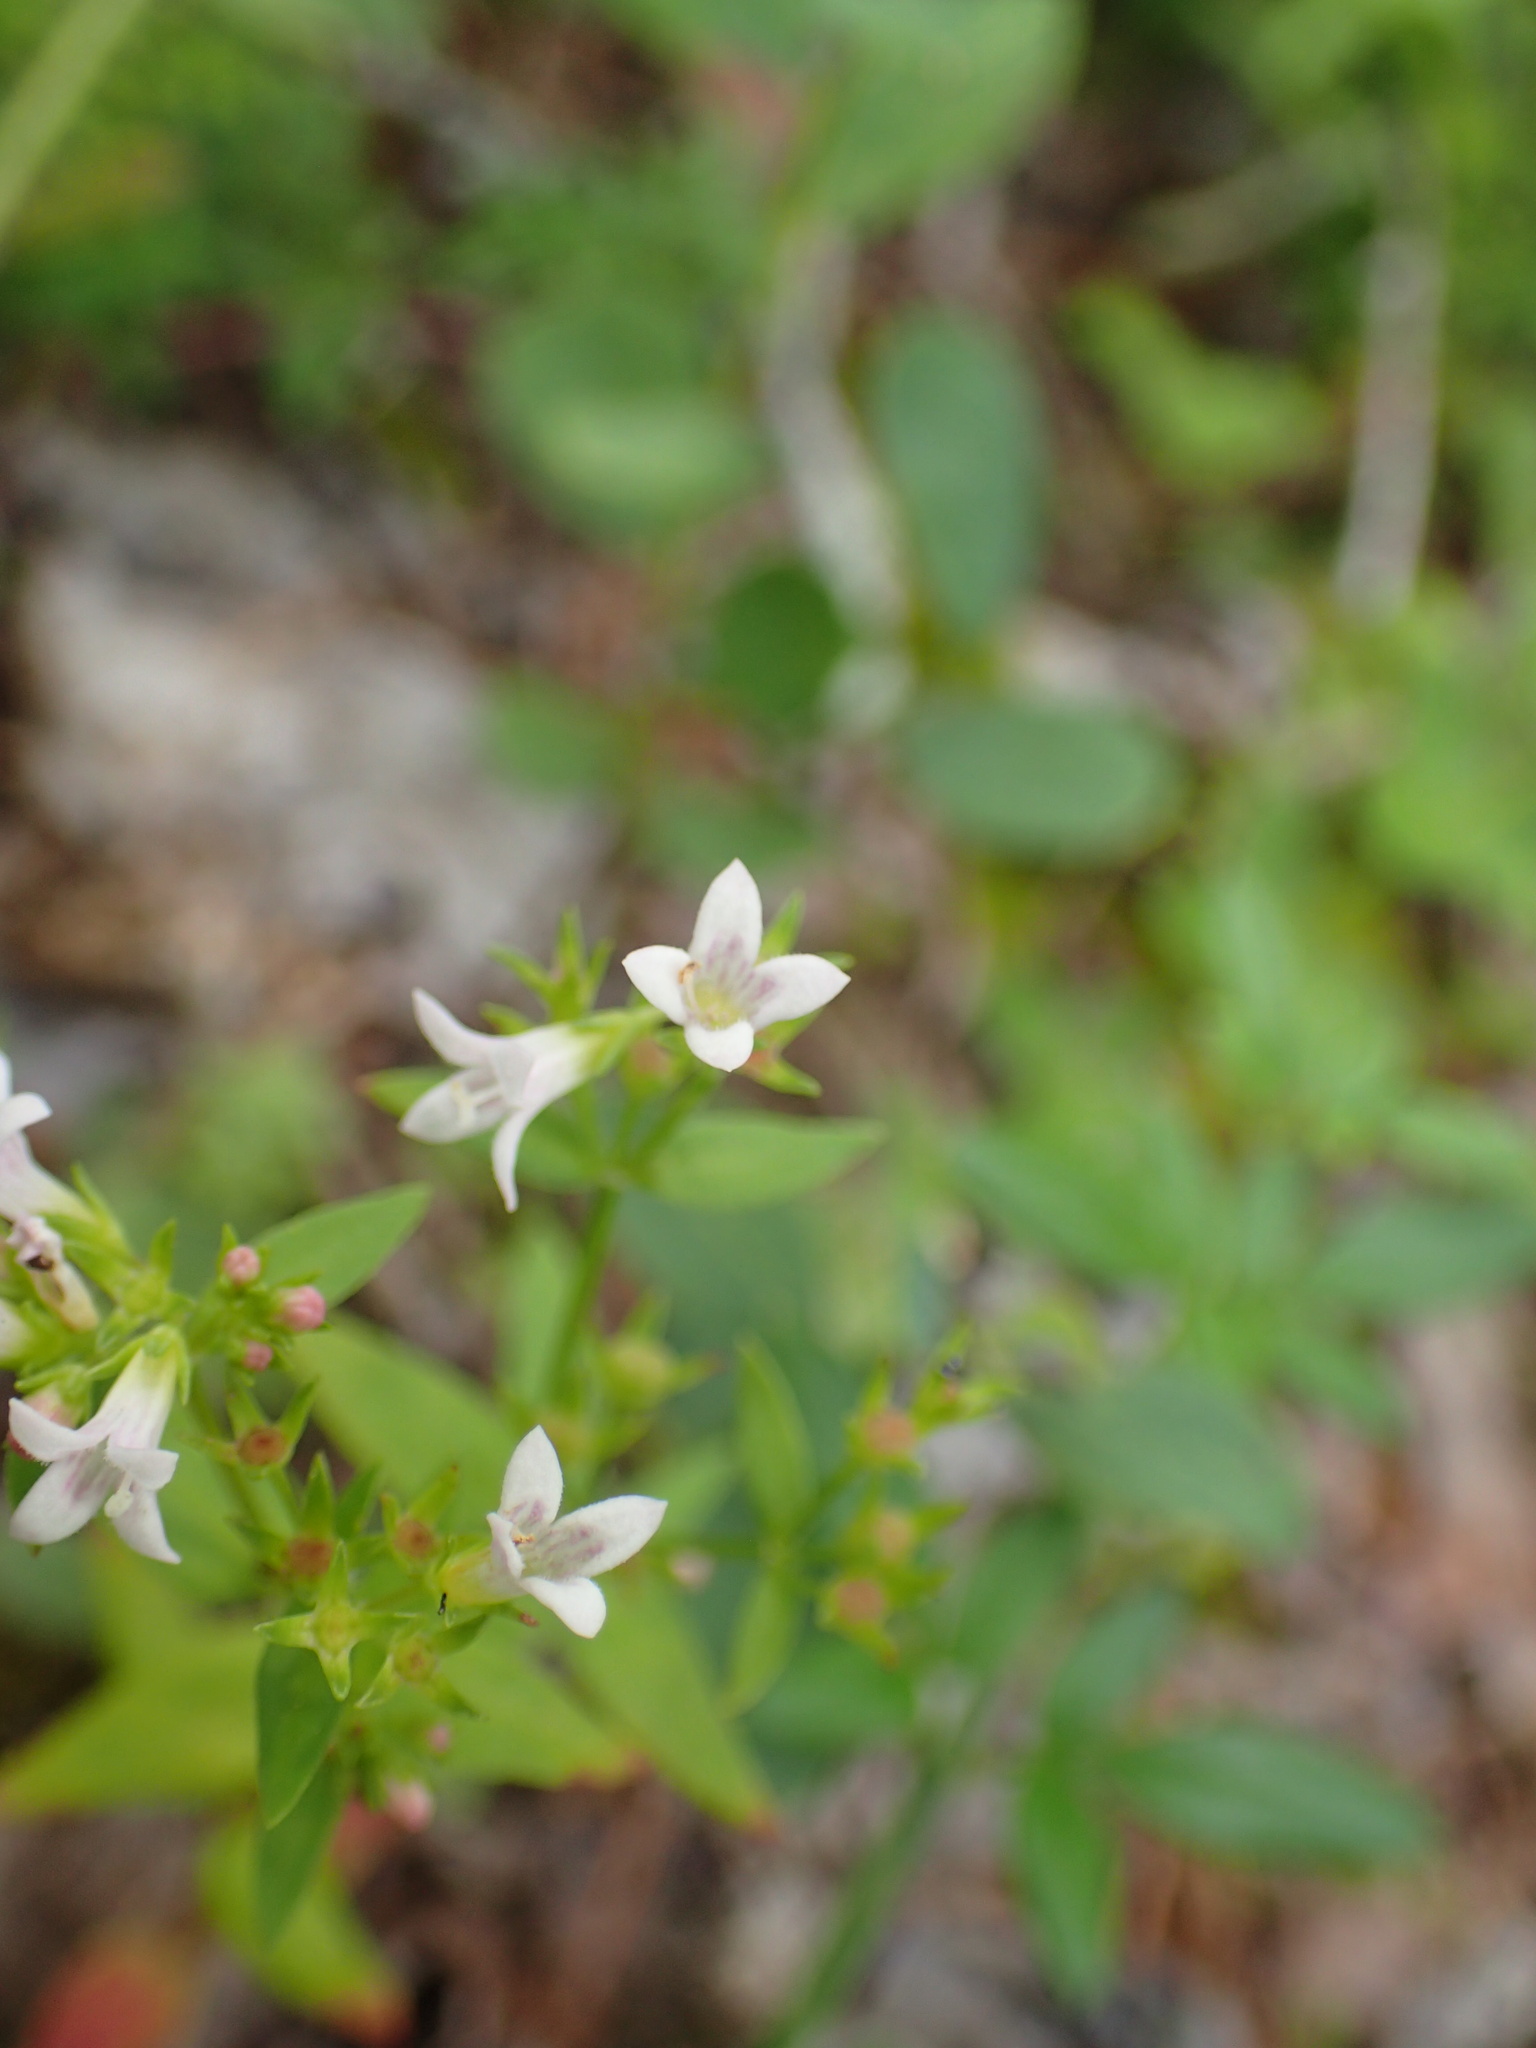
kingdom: Plantae
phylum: Tracheophyta
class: Magnoliopsida
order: Gentianales
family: Rubiaceae
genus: Houstonia
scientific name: Houstonia purpurea
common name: Summer bluet
